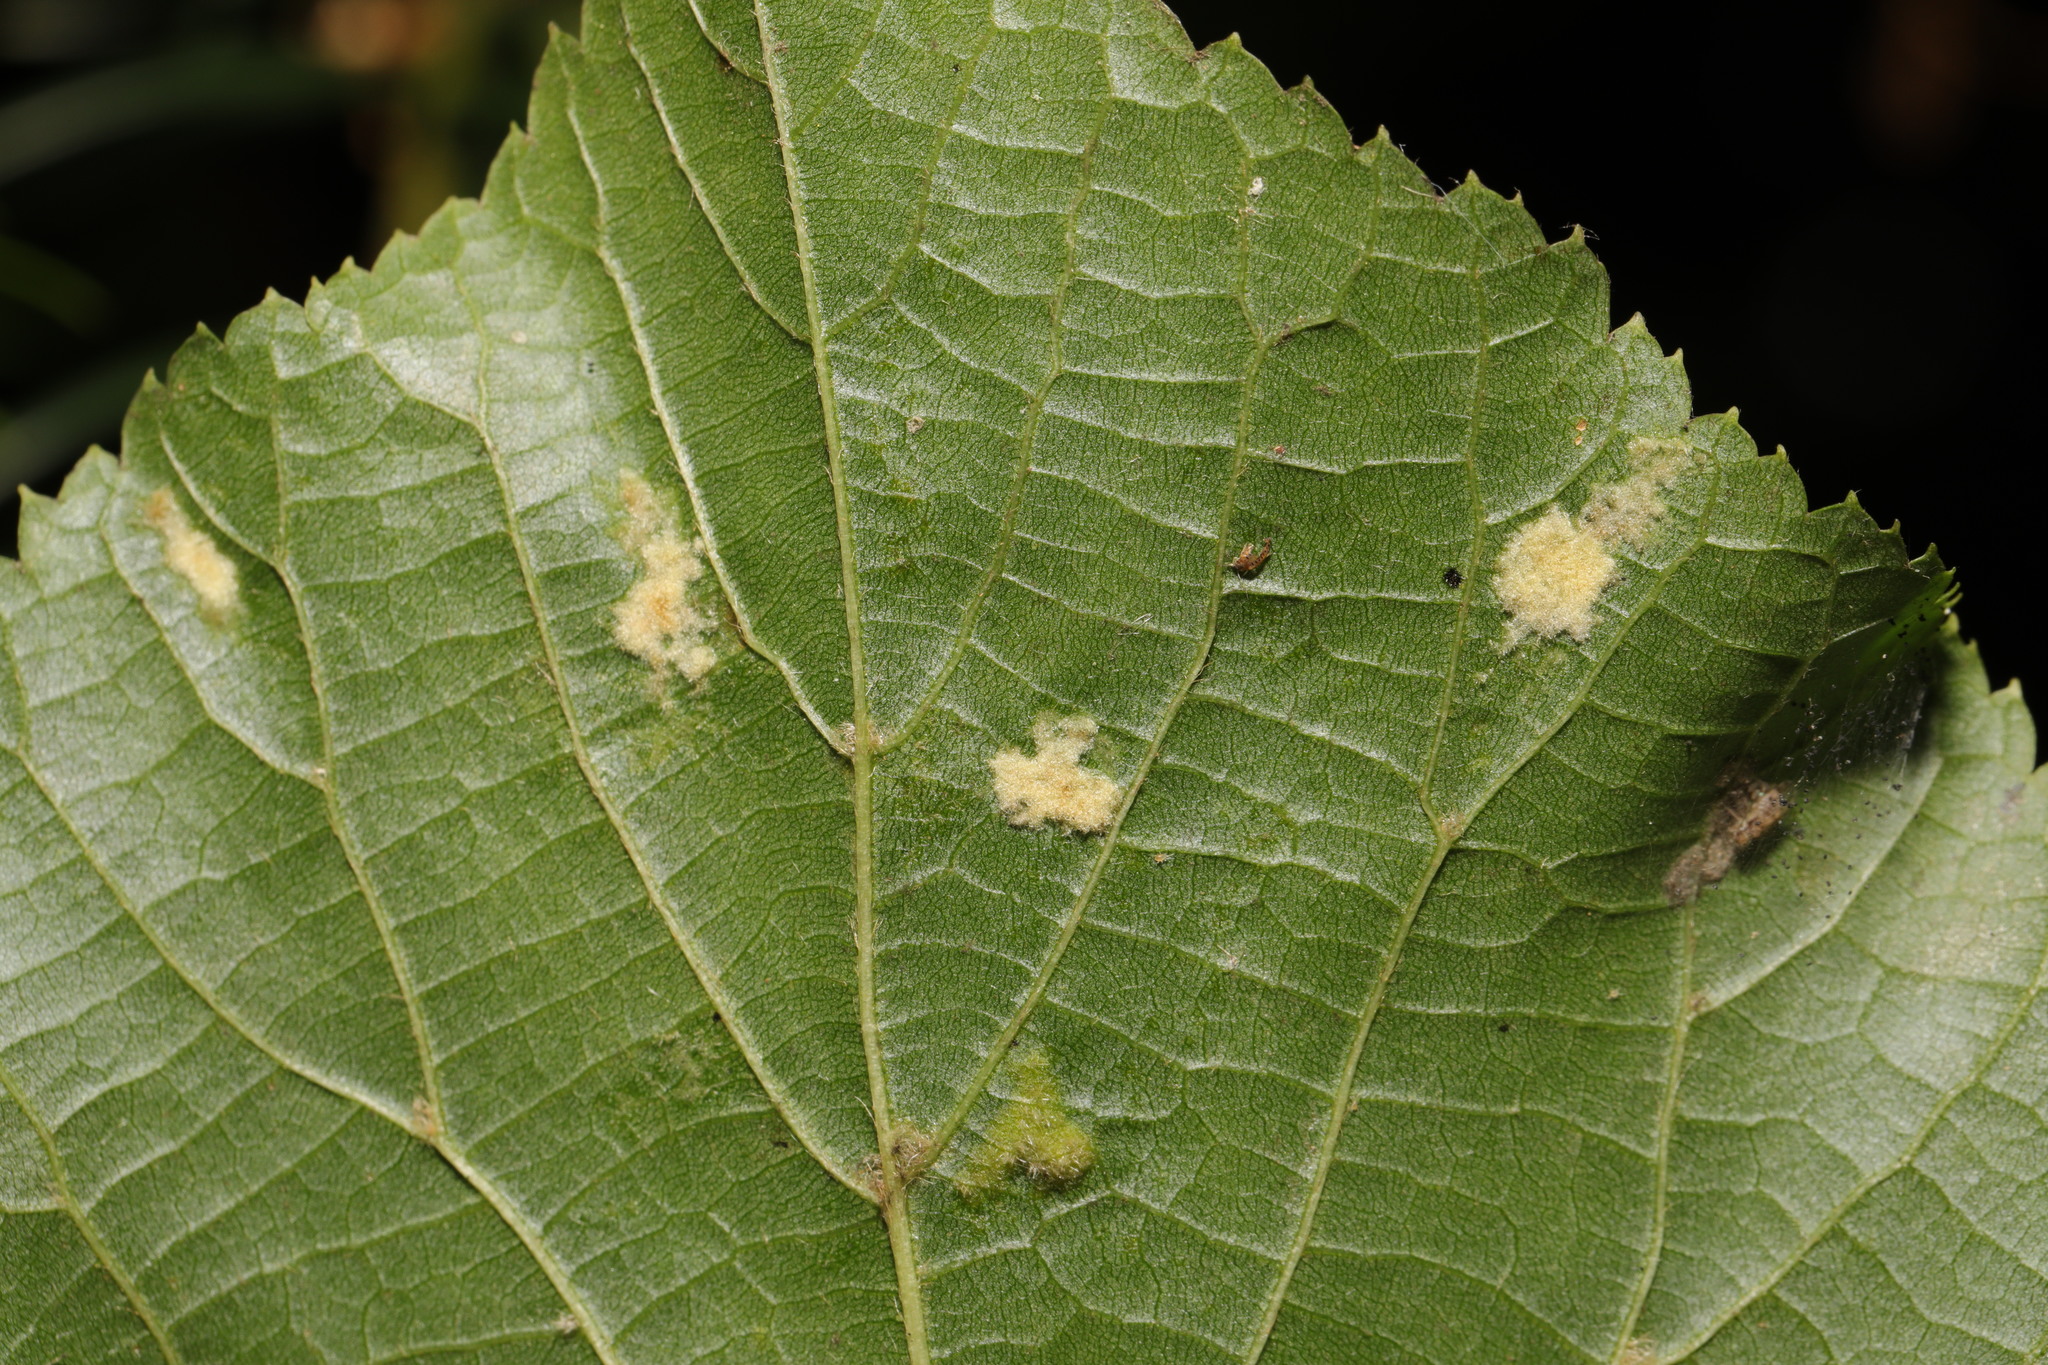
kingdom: Animalia
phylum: Arthropoda
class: Arachnida
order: Trombidiformes
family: Eriophyidae
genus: Eriophyes
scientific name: Eriophyes leiosoma
